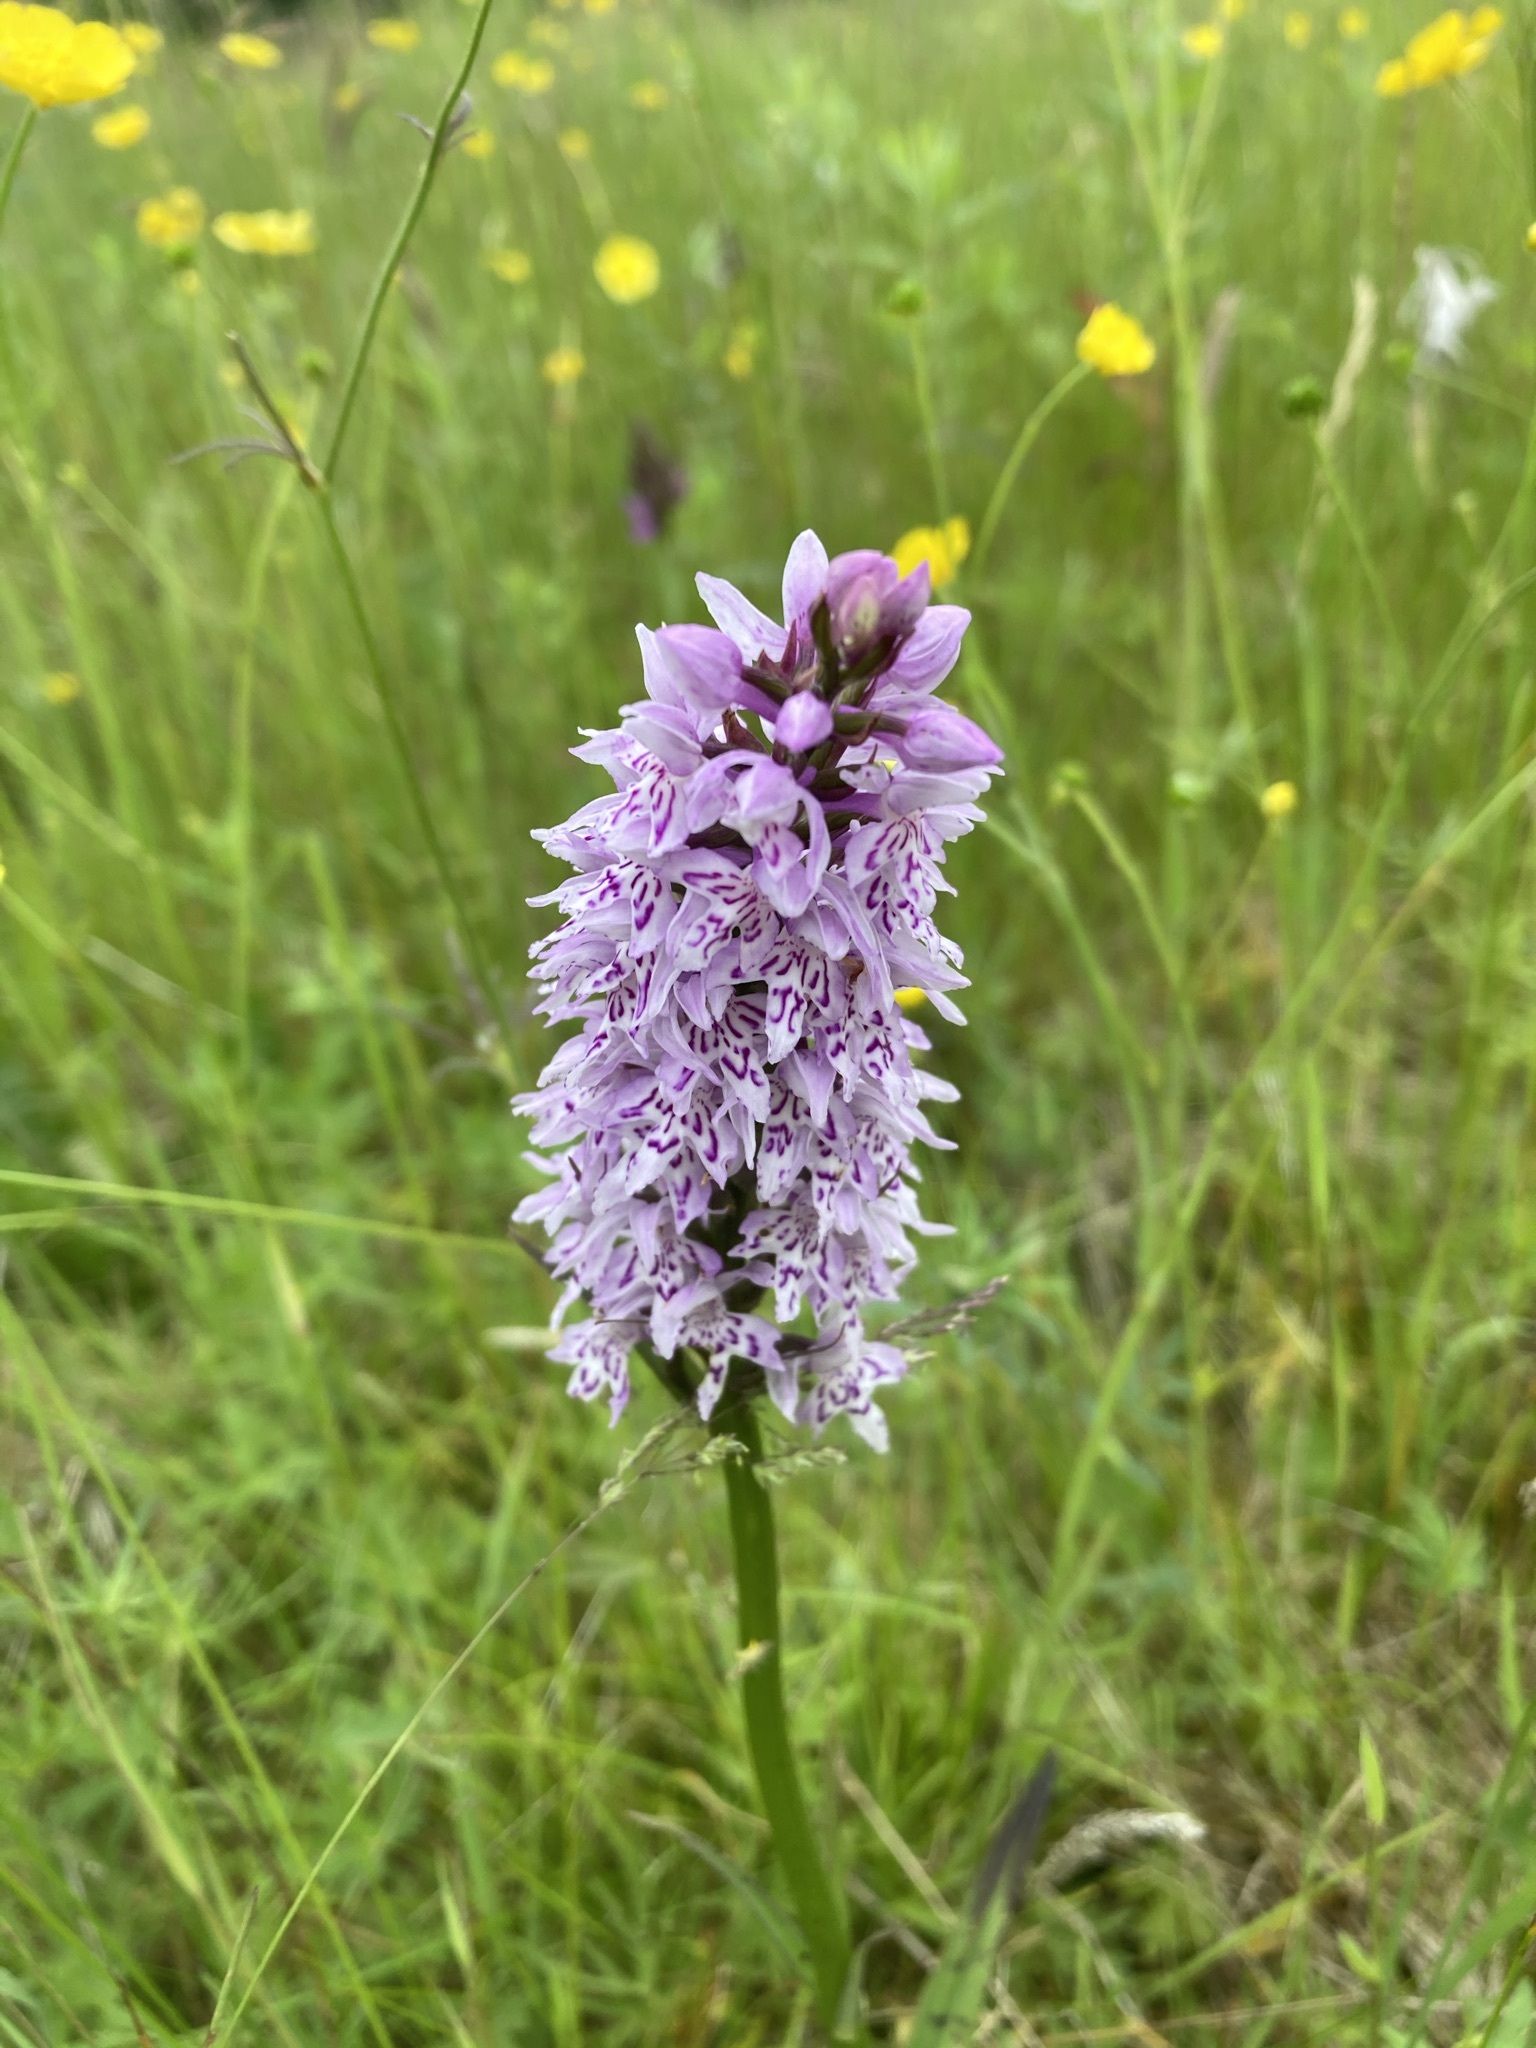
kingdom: Plantae
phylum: Tracheophyta
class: Liliopsida
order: Asparagales
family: Orchidaceae
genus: Dactylorhiza
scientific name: Dactylorhiza maculata
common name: Heath spotted-orchid
